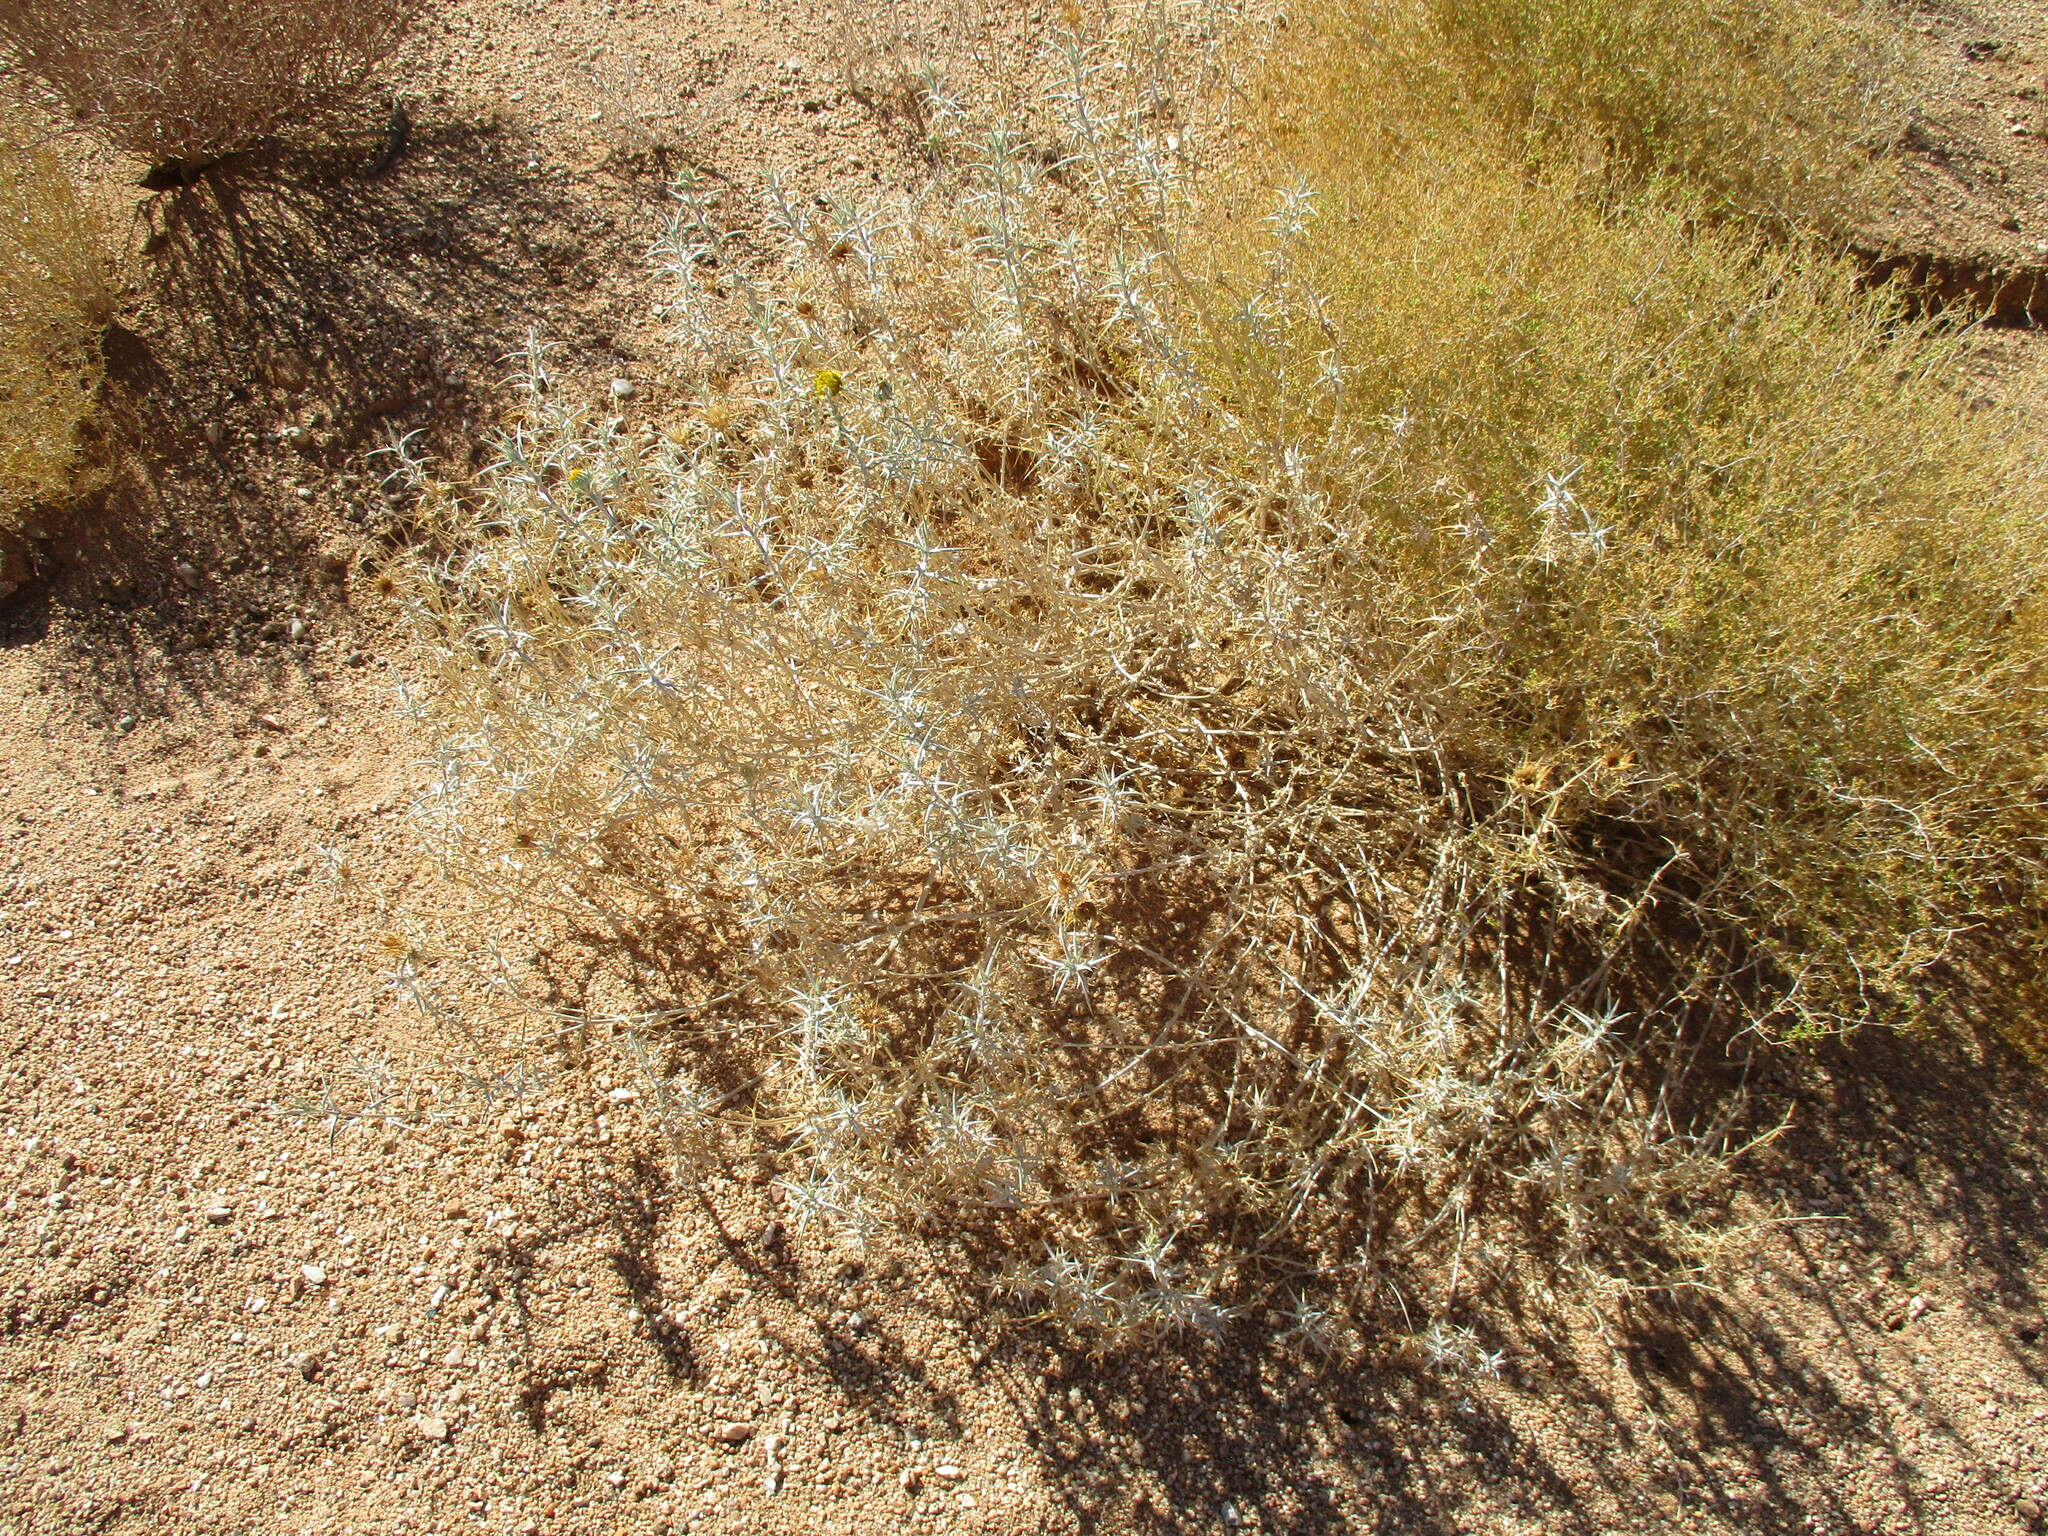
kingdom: Plantae
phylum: Tracheophyta
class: Magnoliopsida
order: Asterales
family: Asteraceae
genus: Berkheya
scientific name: Berkheya schinzii
